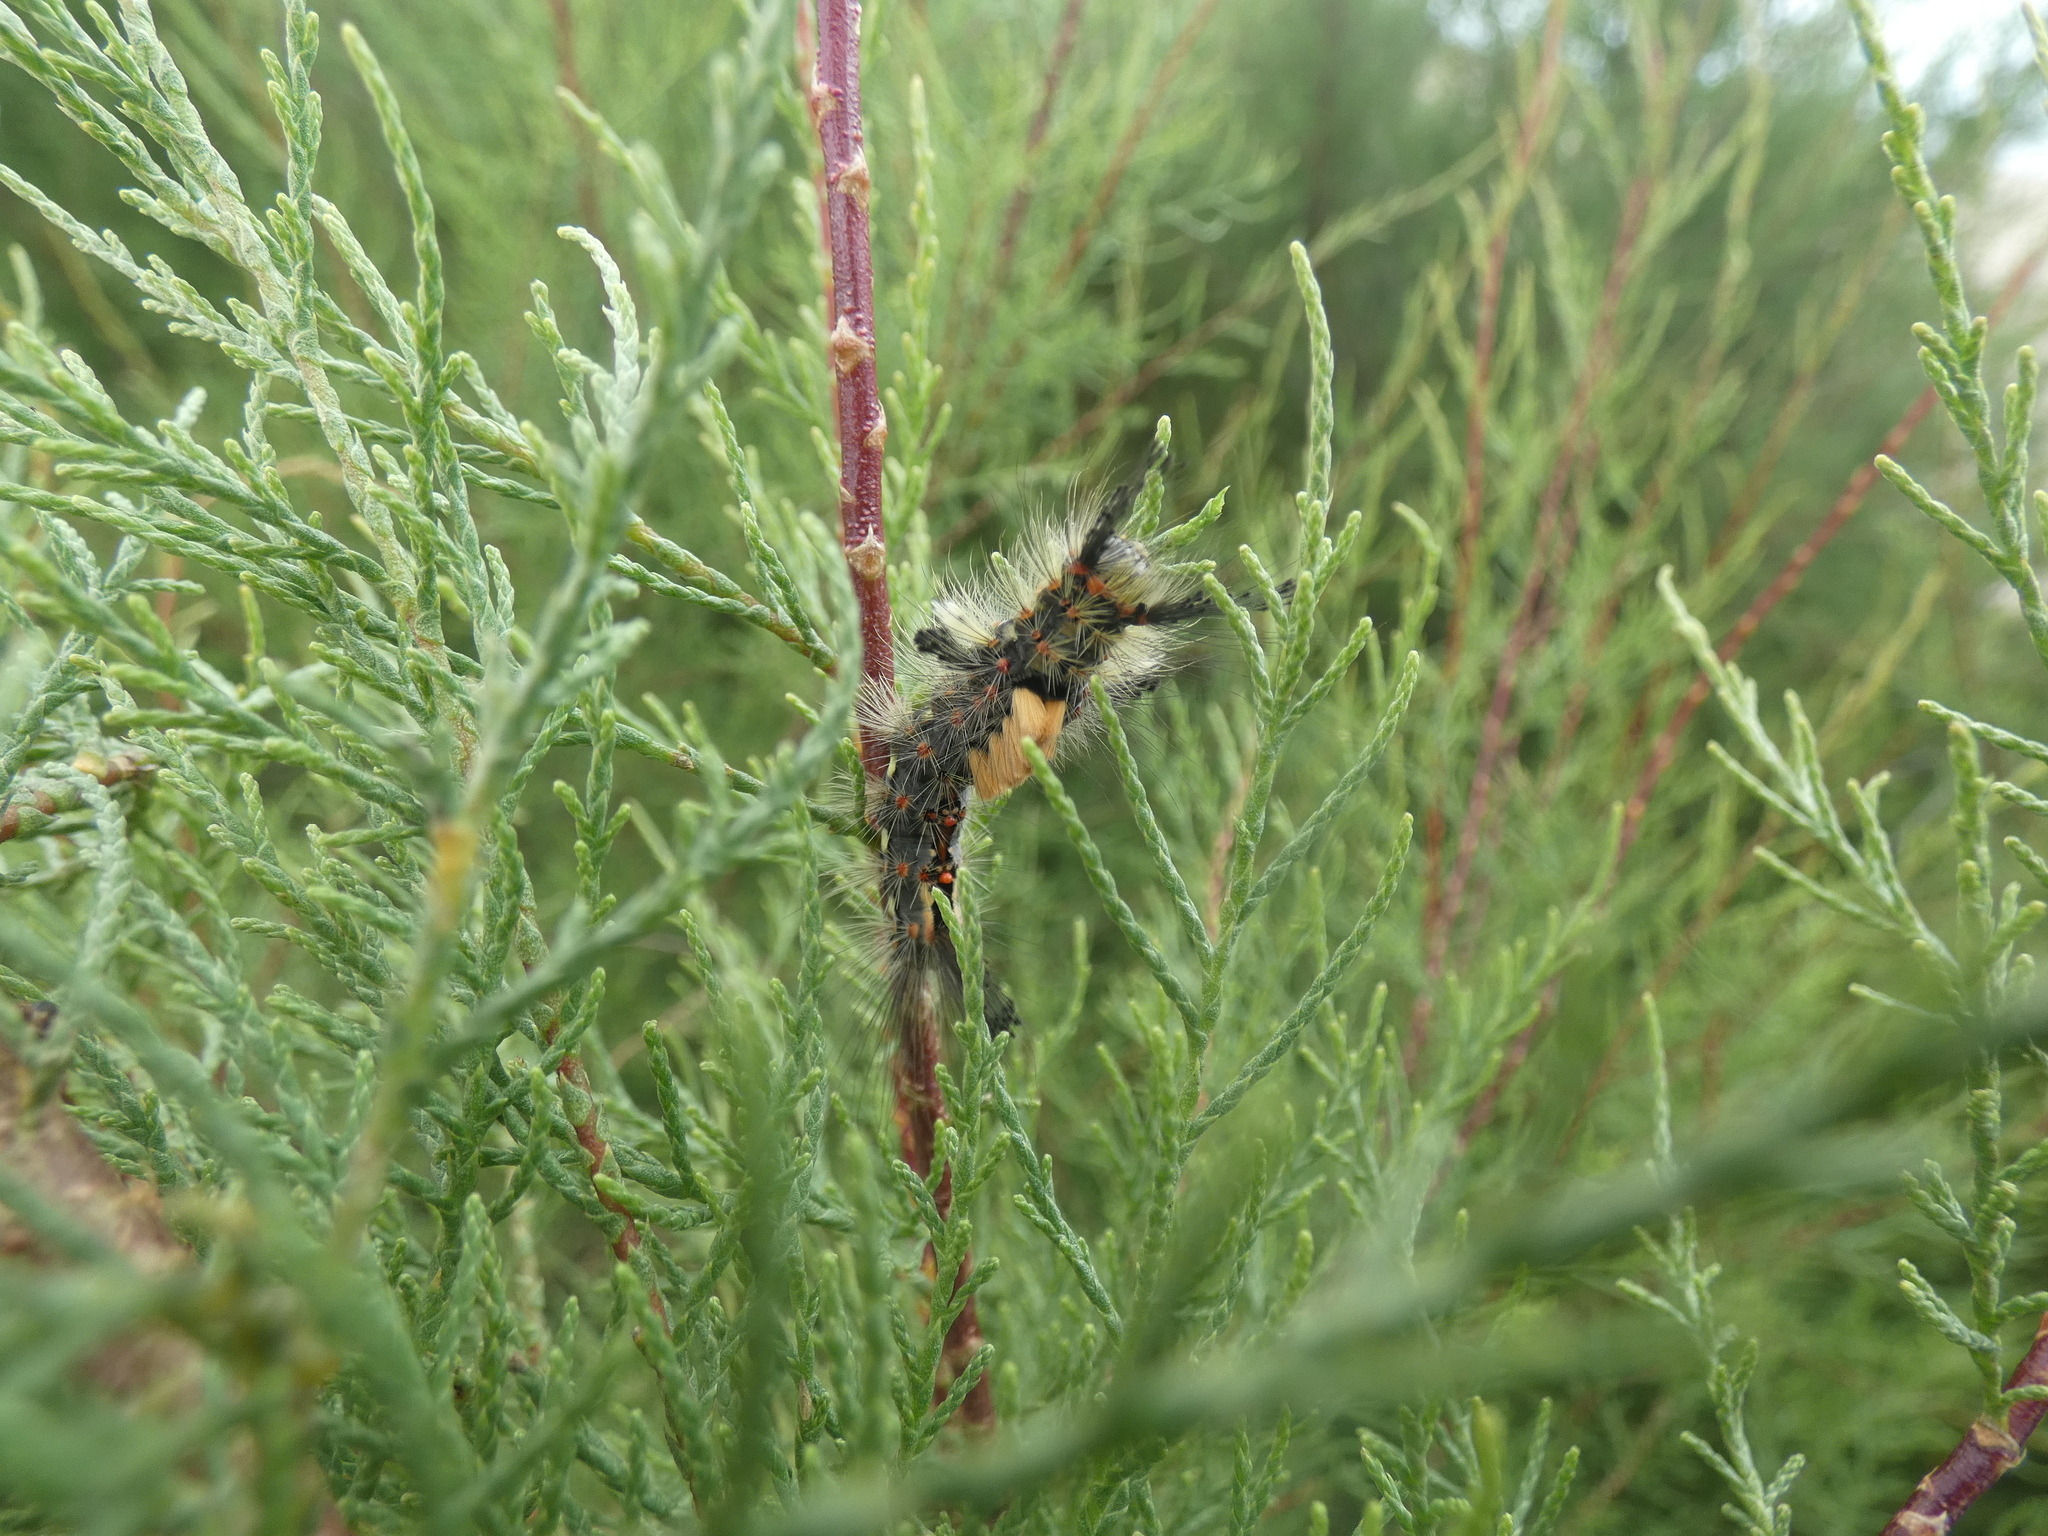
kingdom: Animalia
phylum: Arthropoda
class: Insecta
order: Lepidoptera
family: Erebidae
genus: Orgyia
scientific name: Orgyia antiqua
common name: Vapourer
